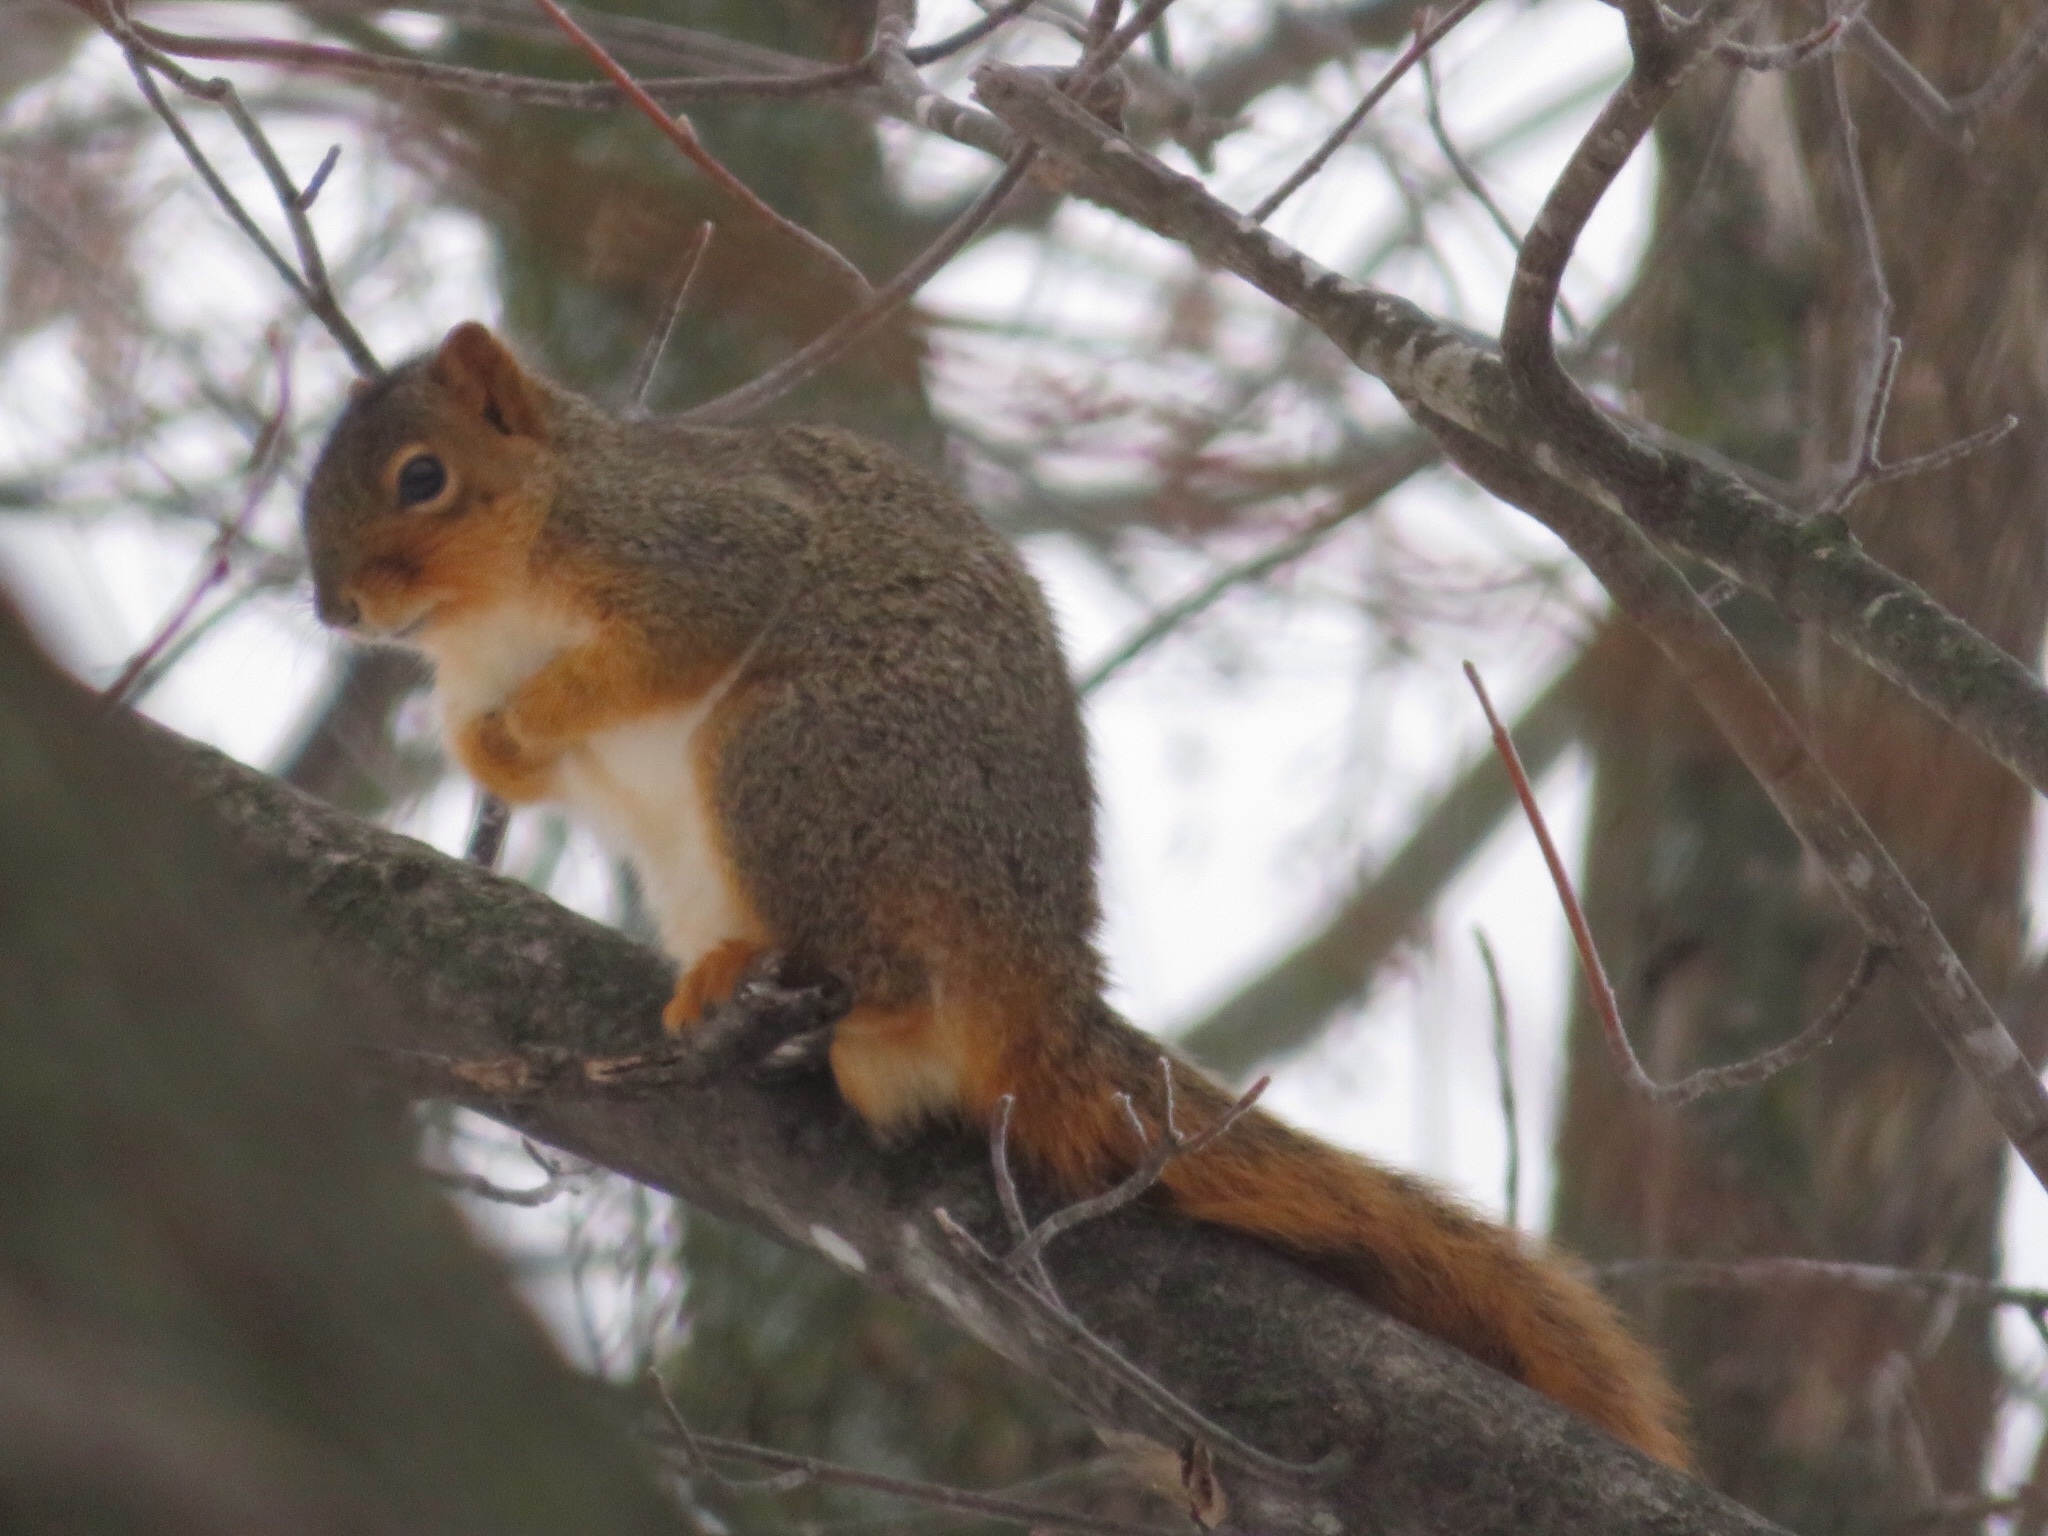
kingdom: Animalia
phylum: Chordata
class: Mammalia
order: Rodentia
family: Sciuridae
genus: Sciurus
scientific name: Sciurus niger
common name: Fox squirrel
